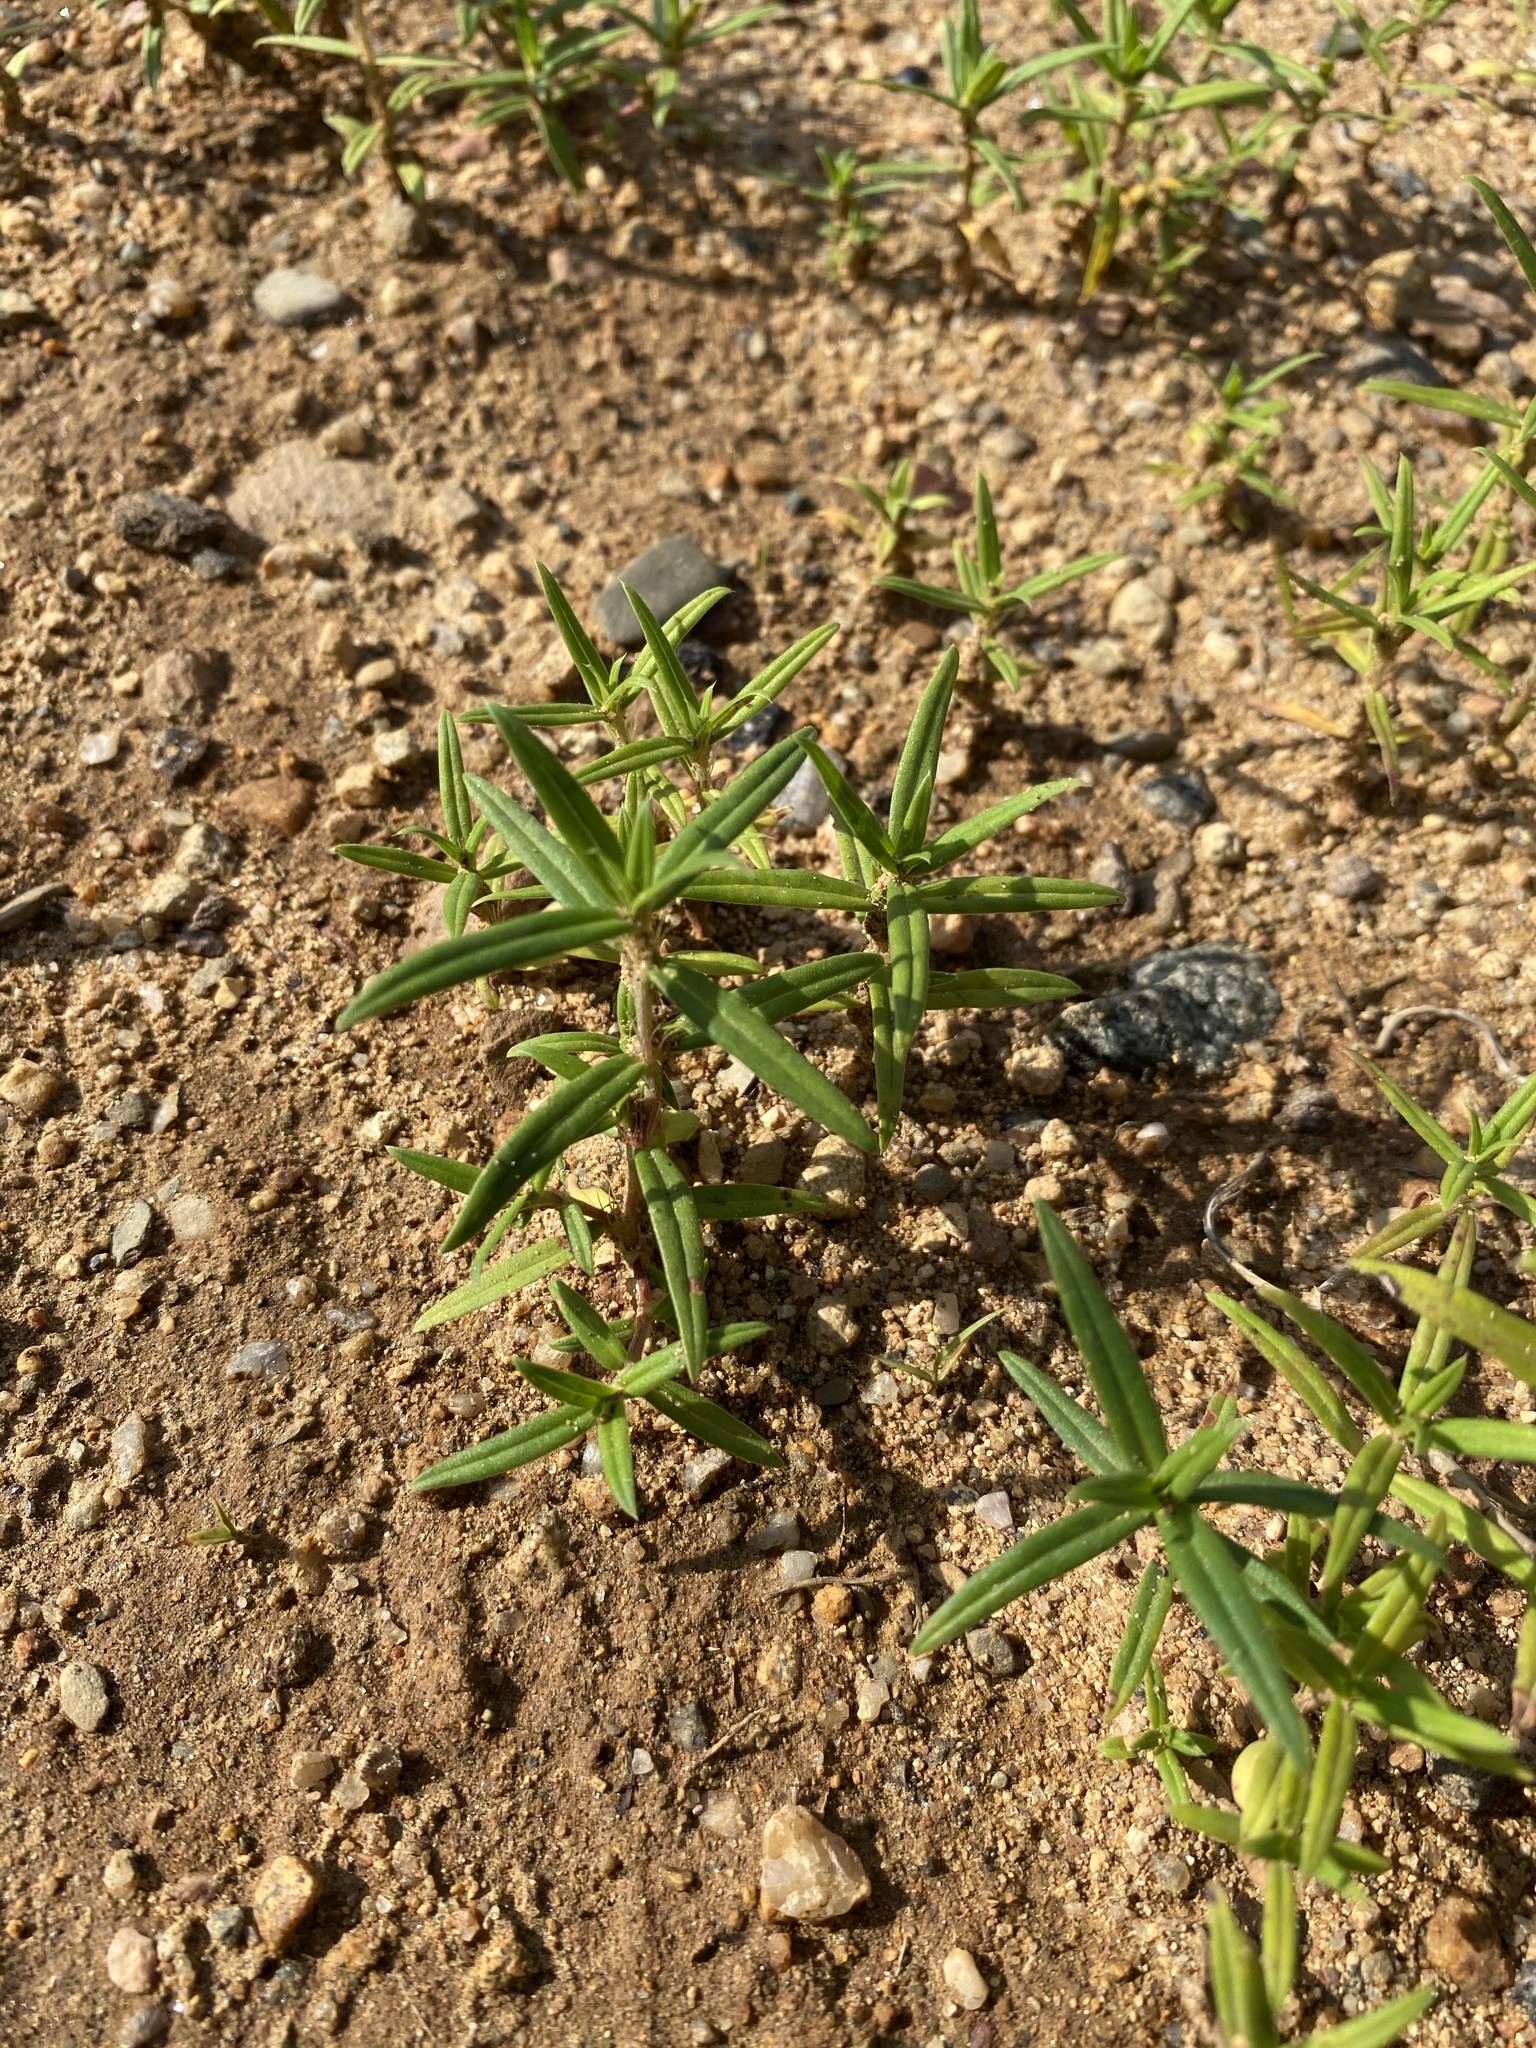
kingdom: Plantae
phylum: Tracheophyta
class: Magnoliopsida
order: Gentianales
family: Rubiaceae
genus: Hexasepalum
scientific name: Hexasepalum teres
